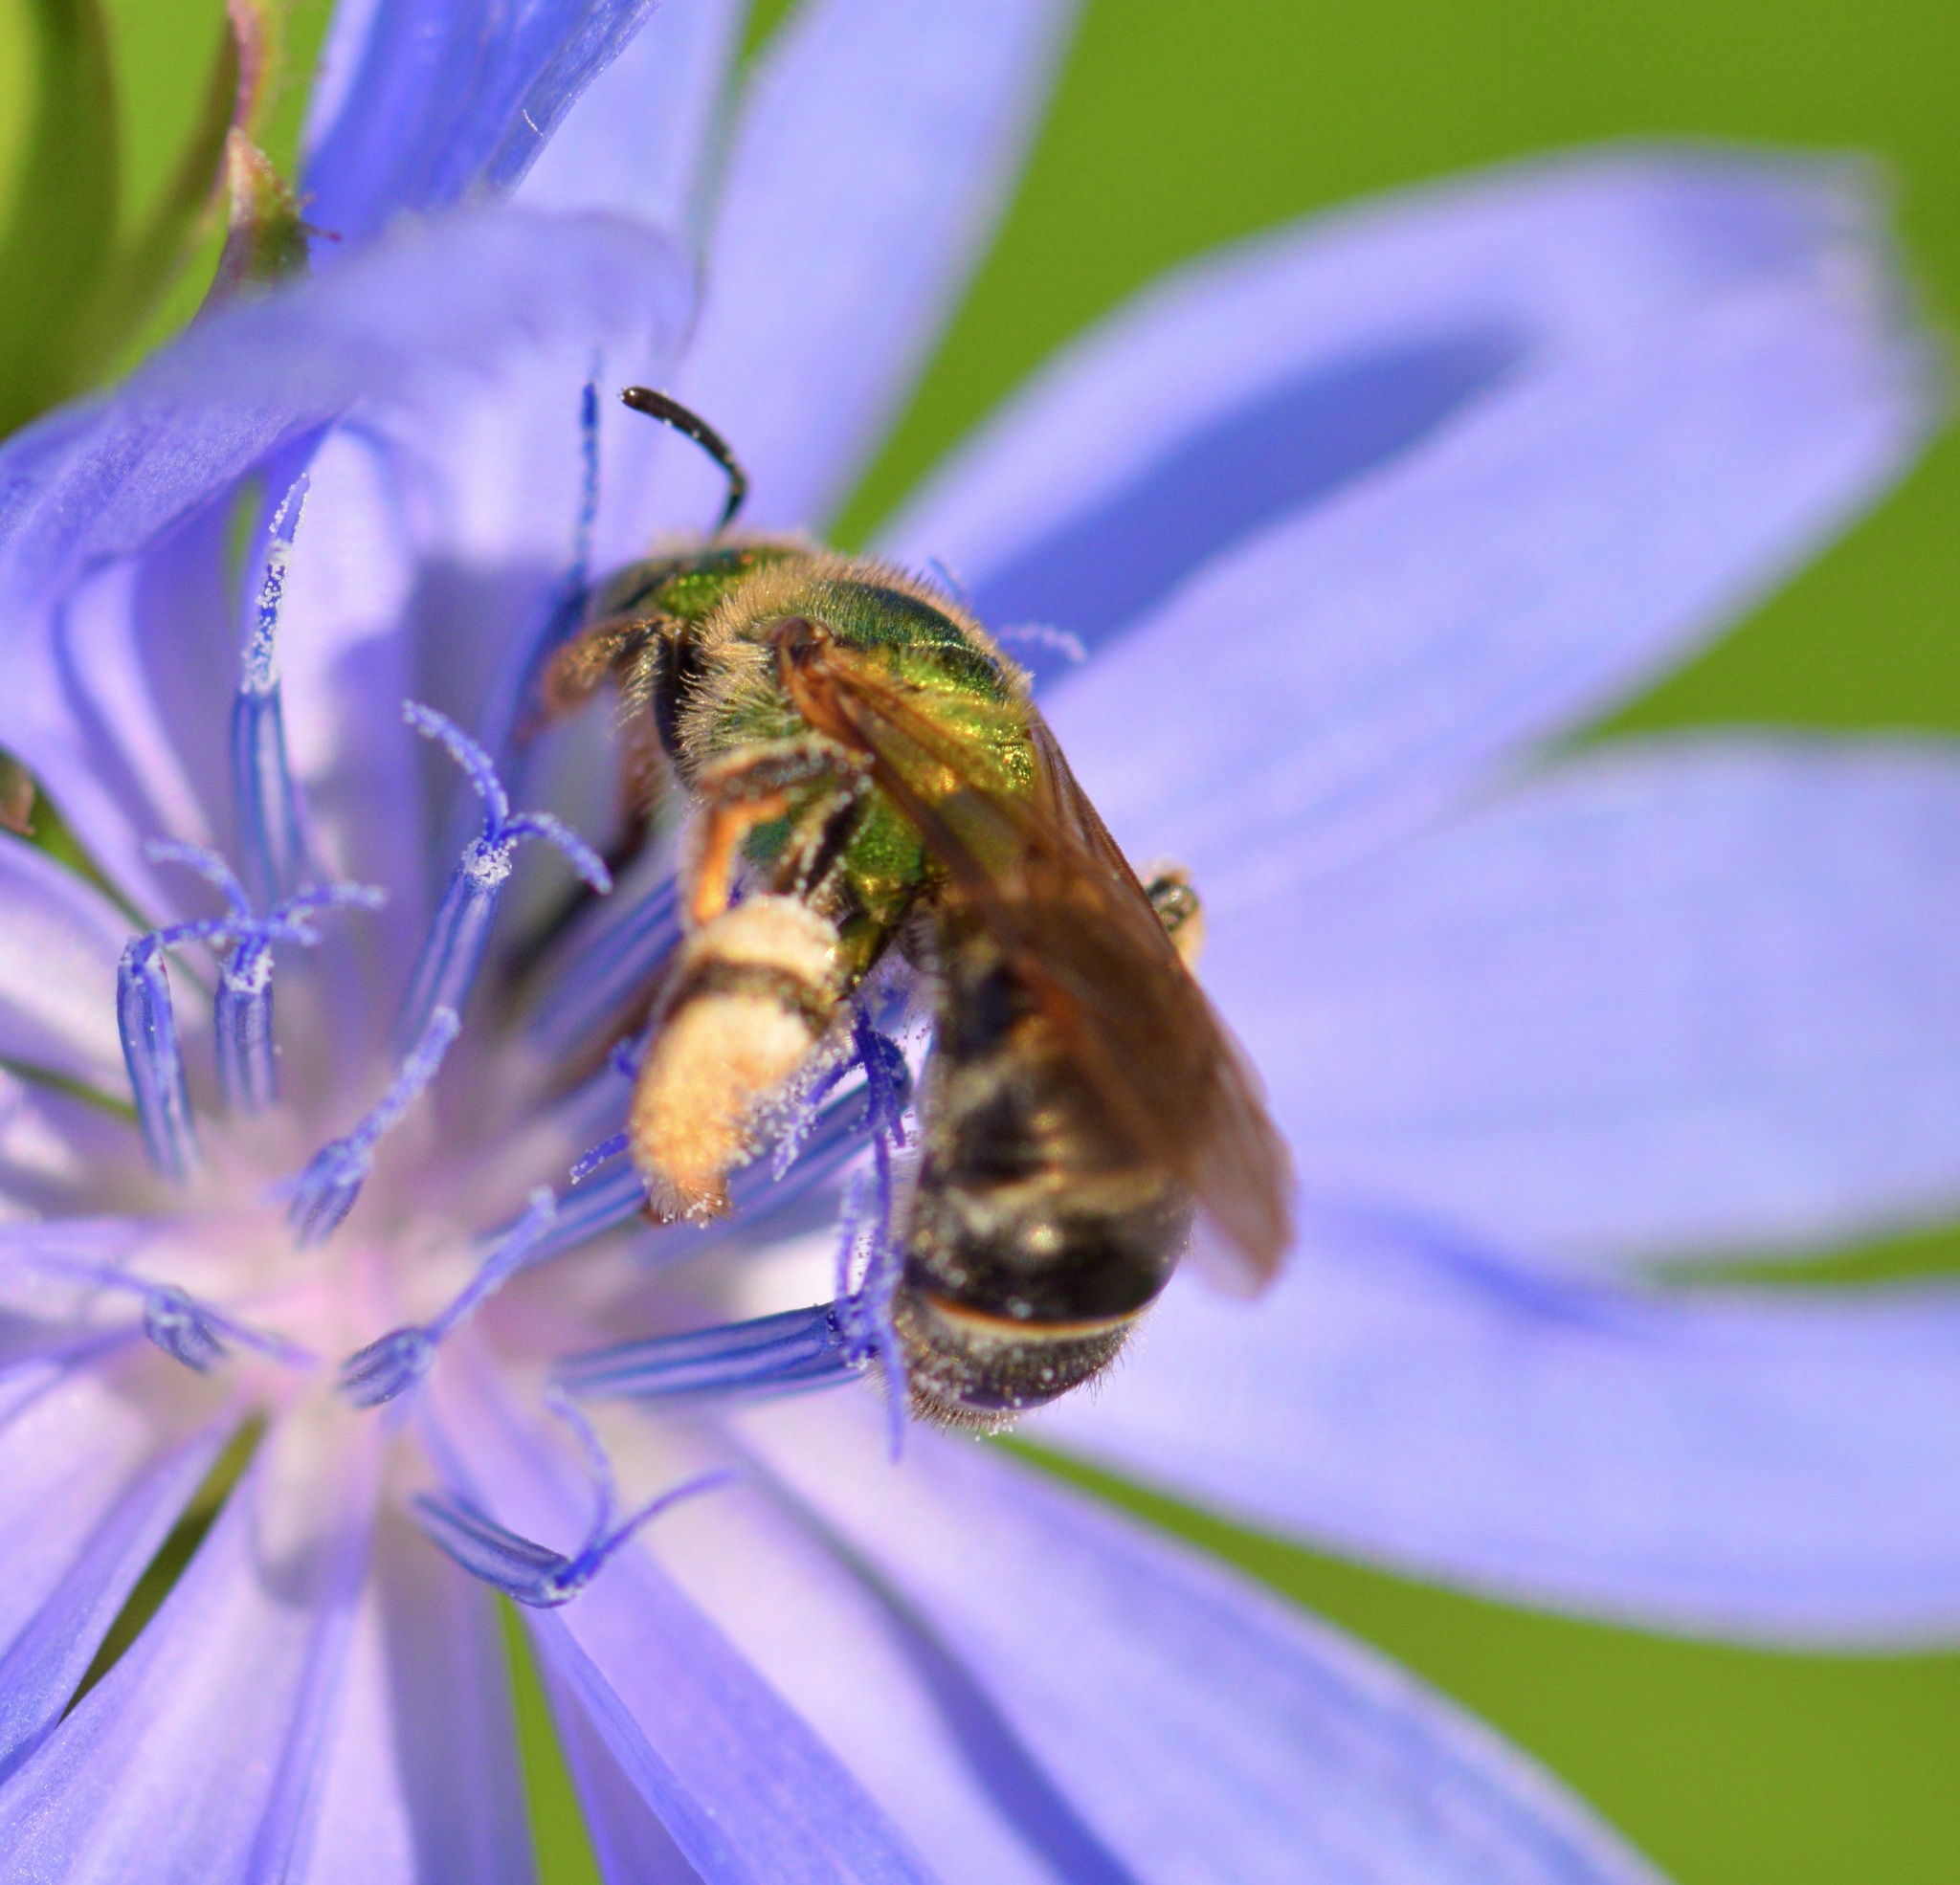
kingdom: Animalia
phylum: Arthropoda
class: Insecta
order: Hymenoptera
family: Halictidae
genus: Agapostemon
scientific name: Agapostemon virescens
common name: Bicolored striped sweat bee
